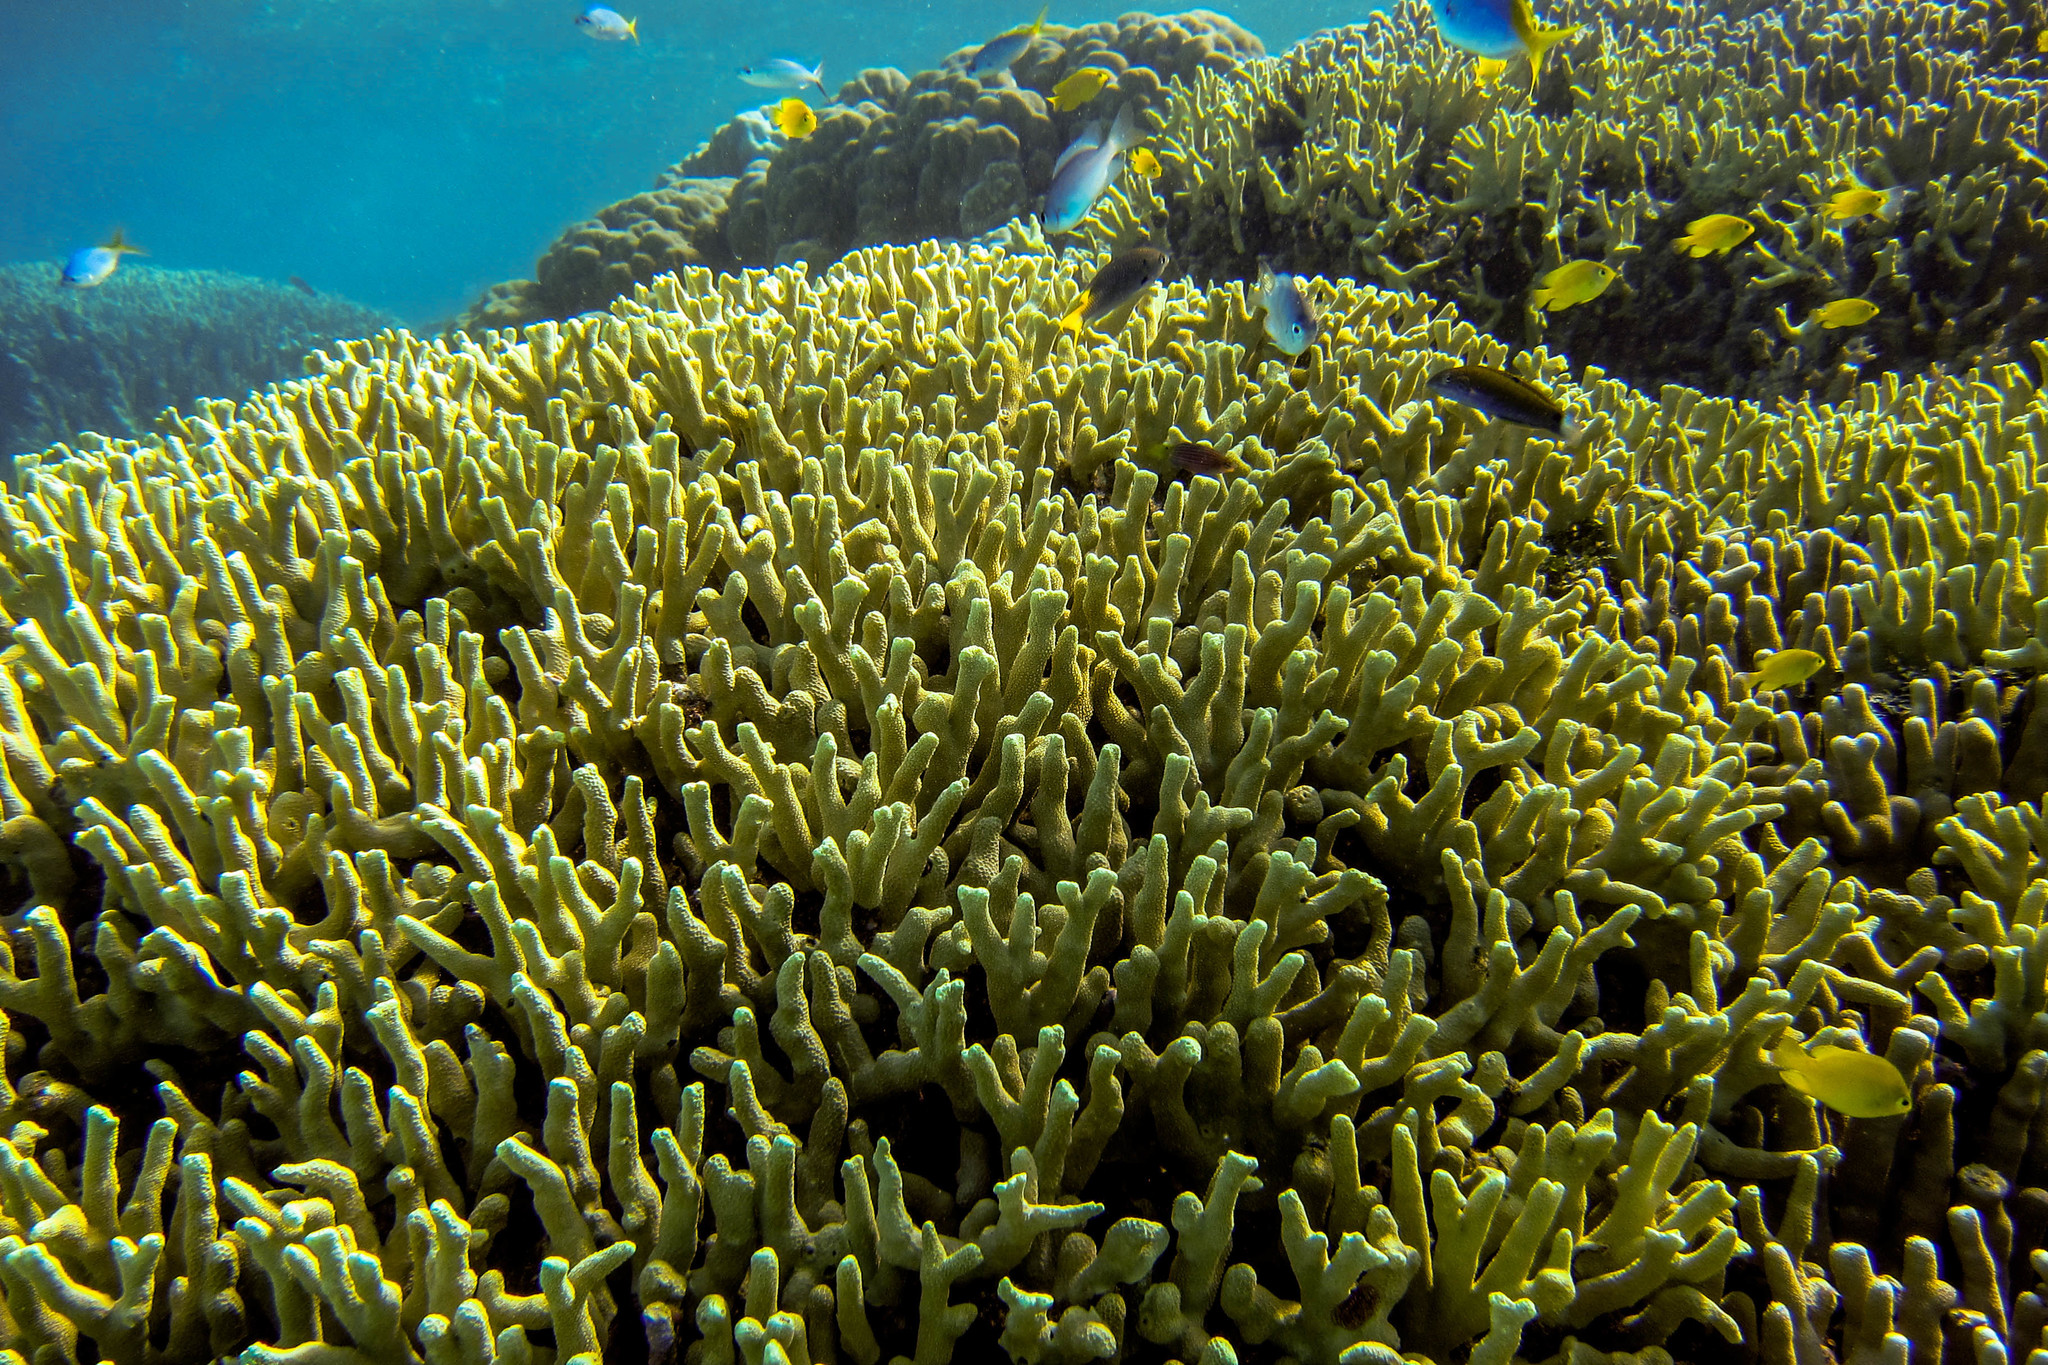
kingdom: Animalia
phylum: Chordata
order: Perciformes
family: Labridae
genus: Thalassoma
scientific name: Thalassoma lunare
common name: Blue wrasse
